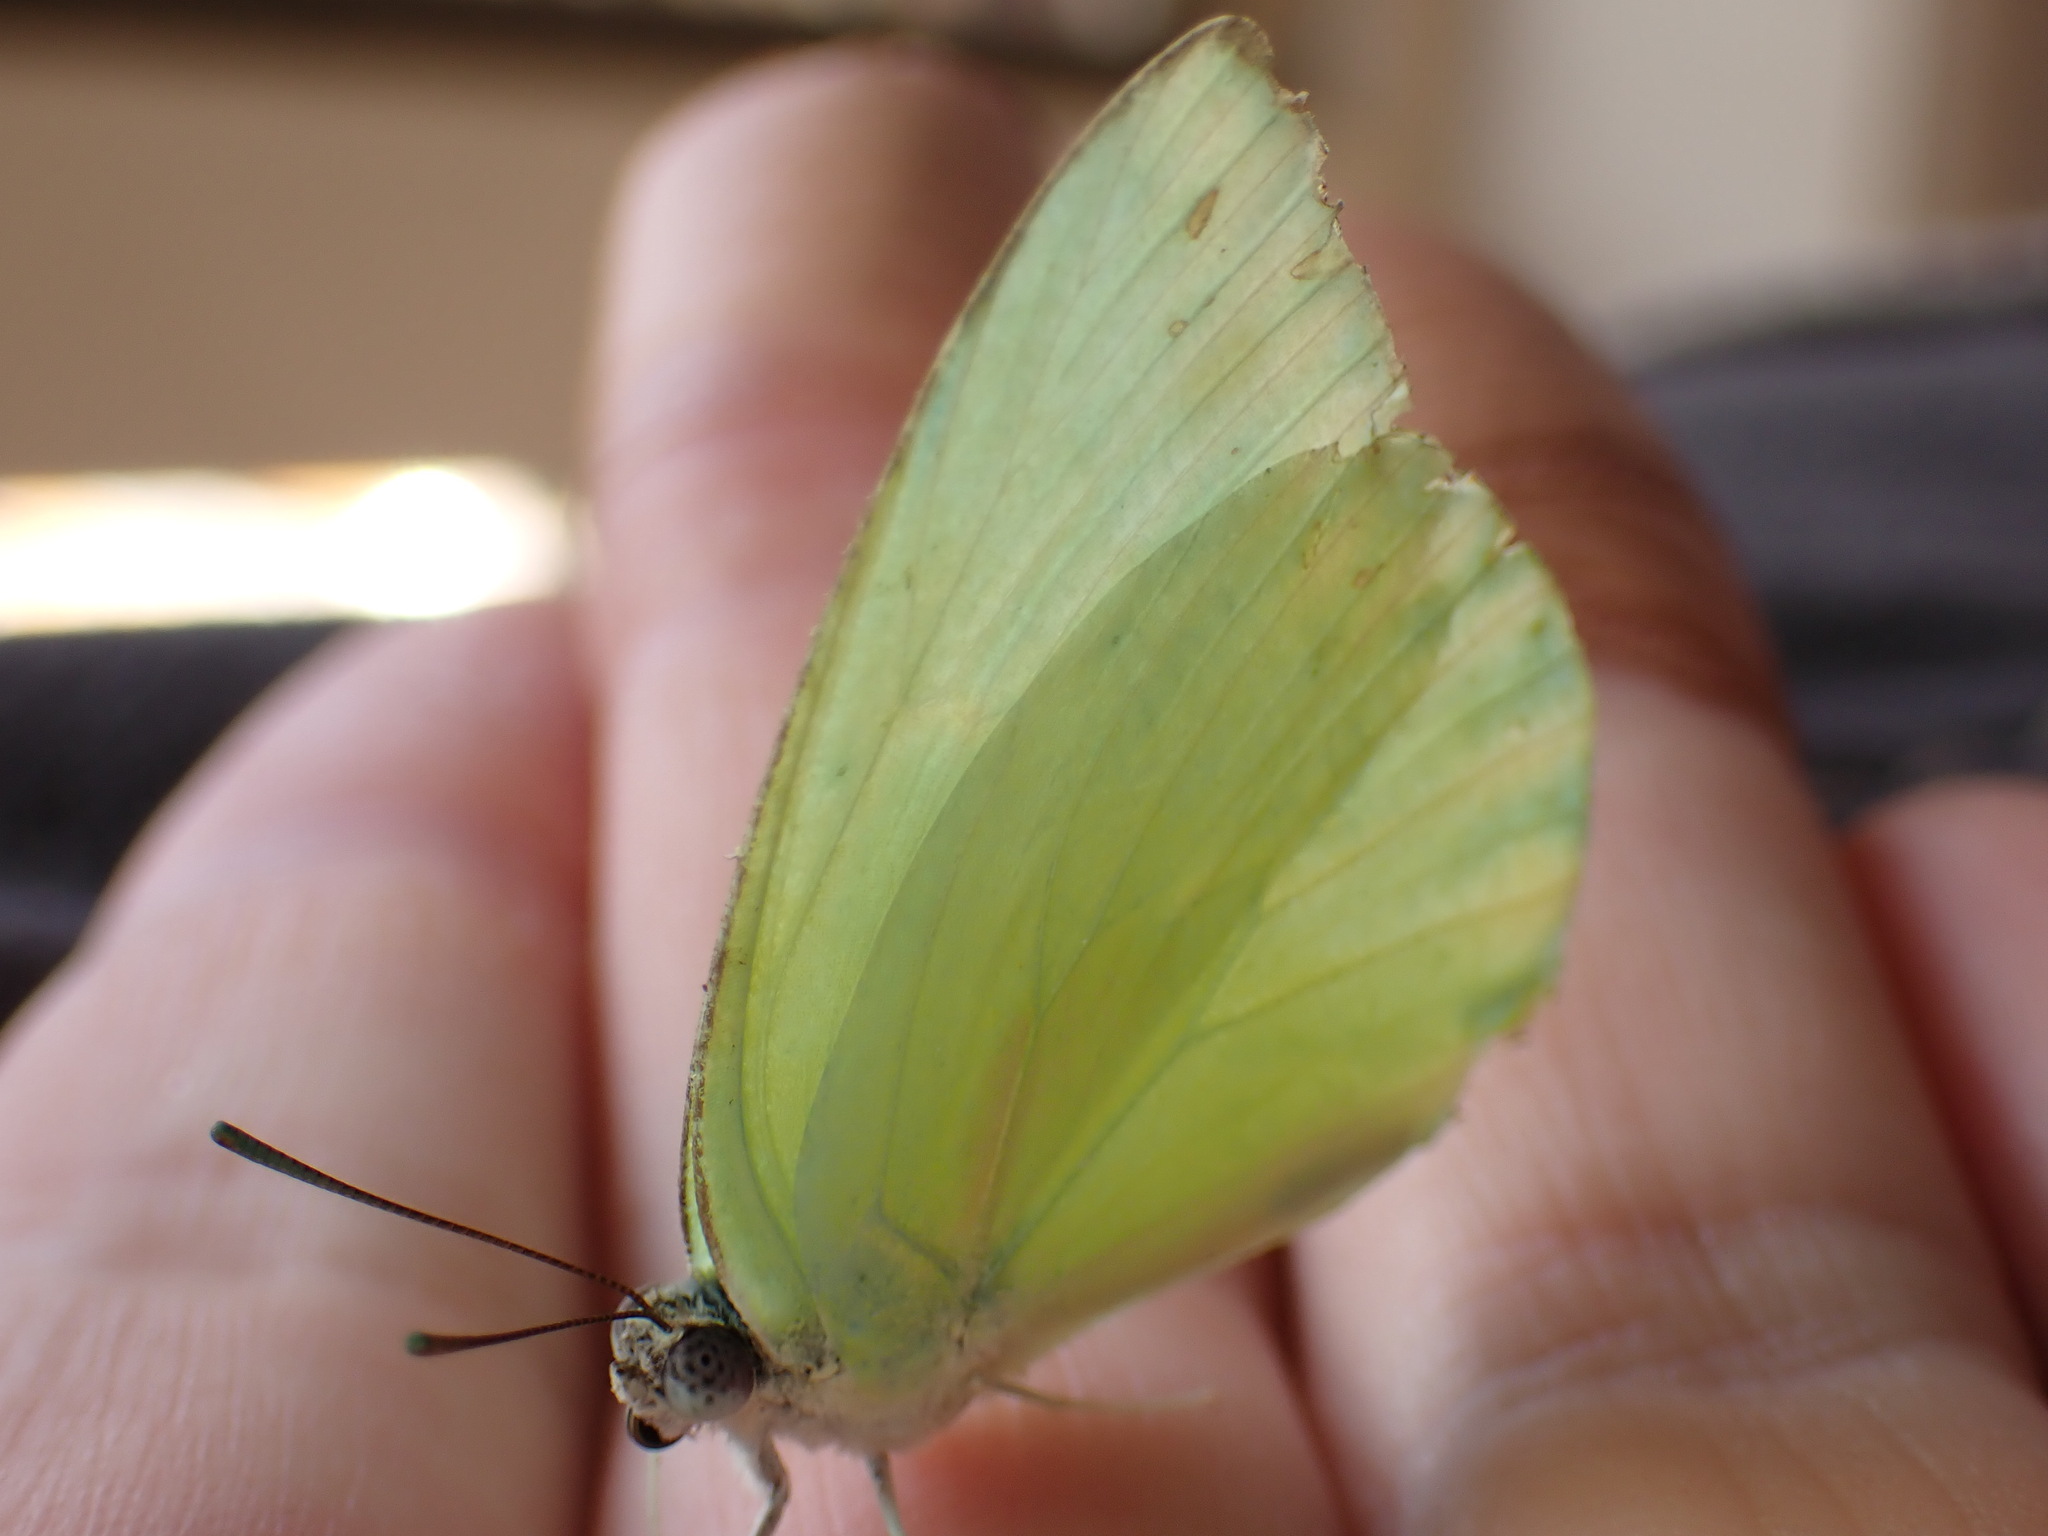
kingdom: Animalia
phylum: Arthropoda
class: Insecta
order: Lepidoptera
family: Pieridae
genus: Catopsilia
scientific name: Catopsilia pomona
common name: Common emigrant
